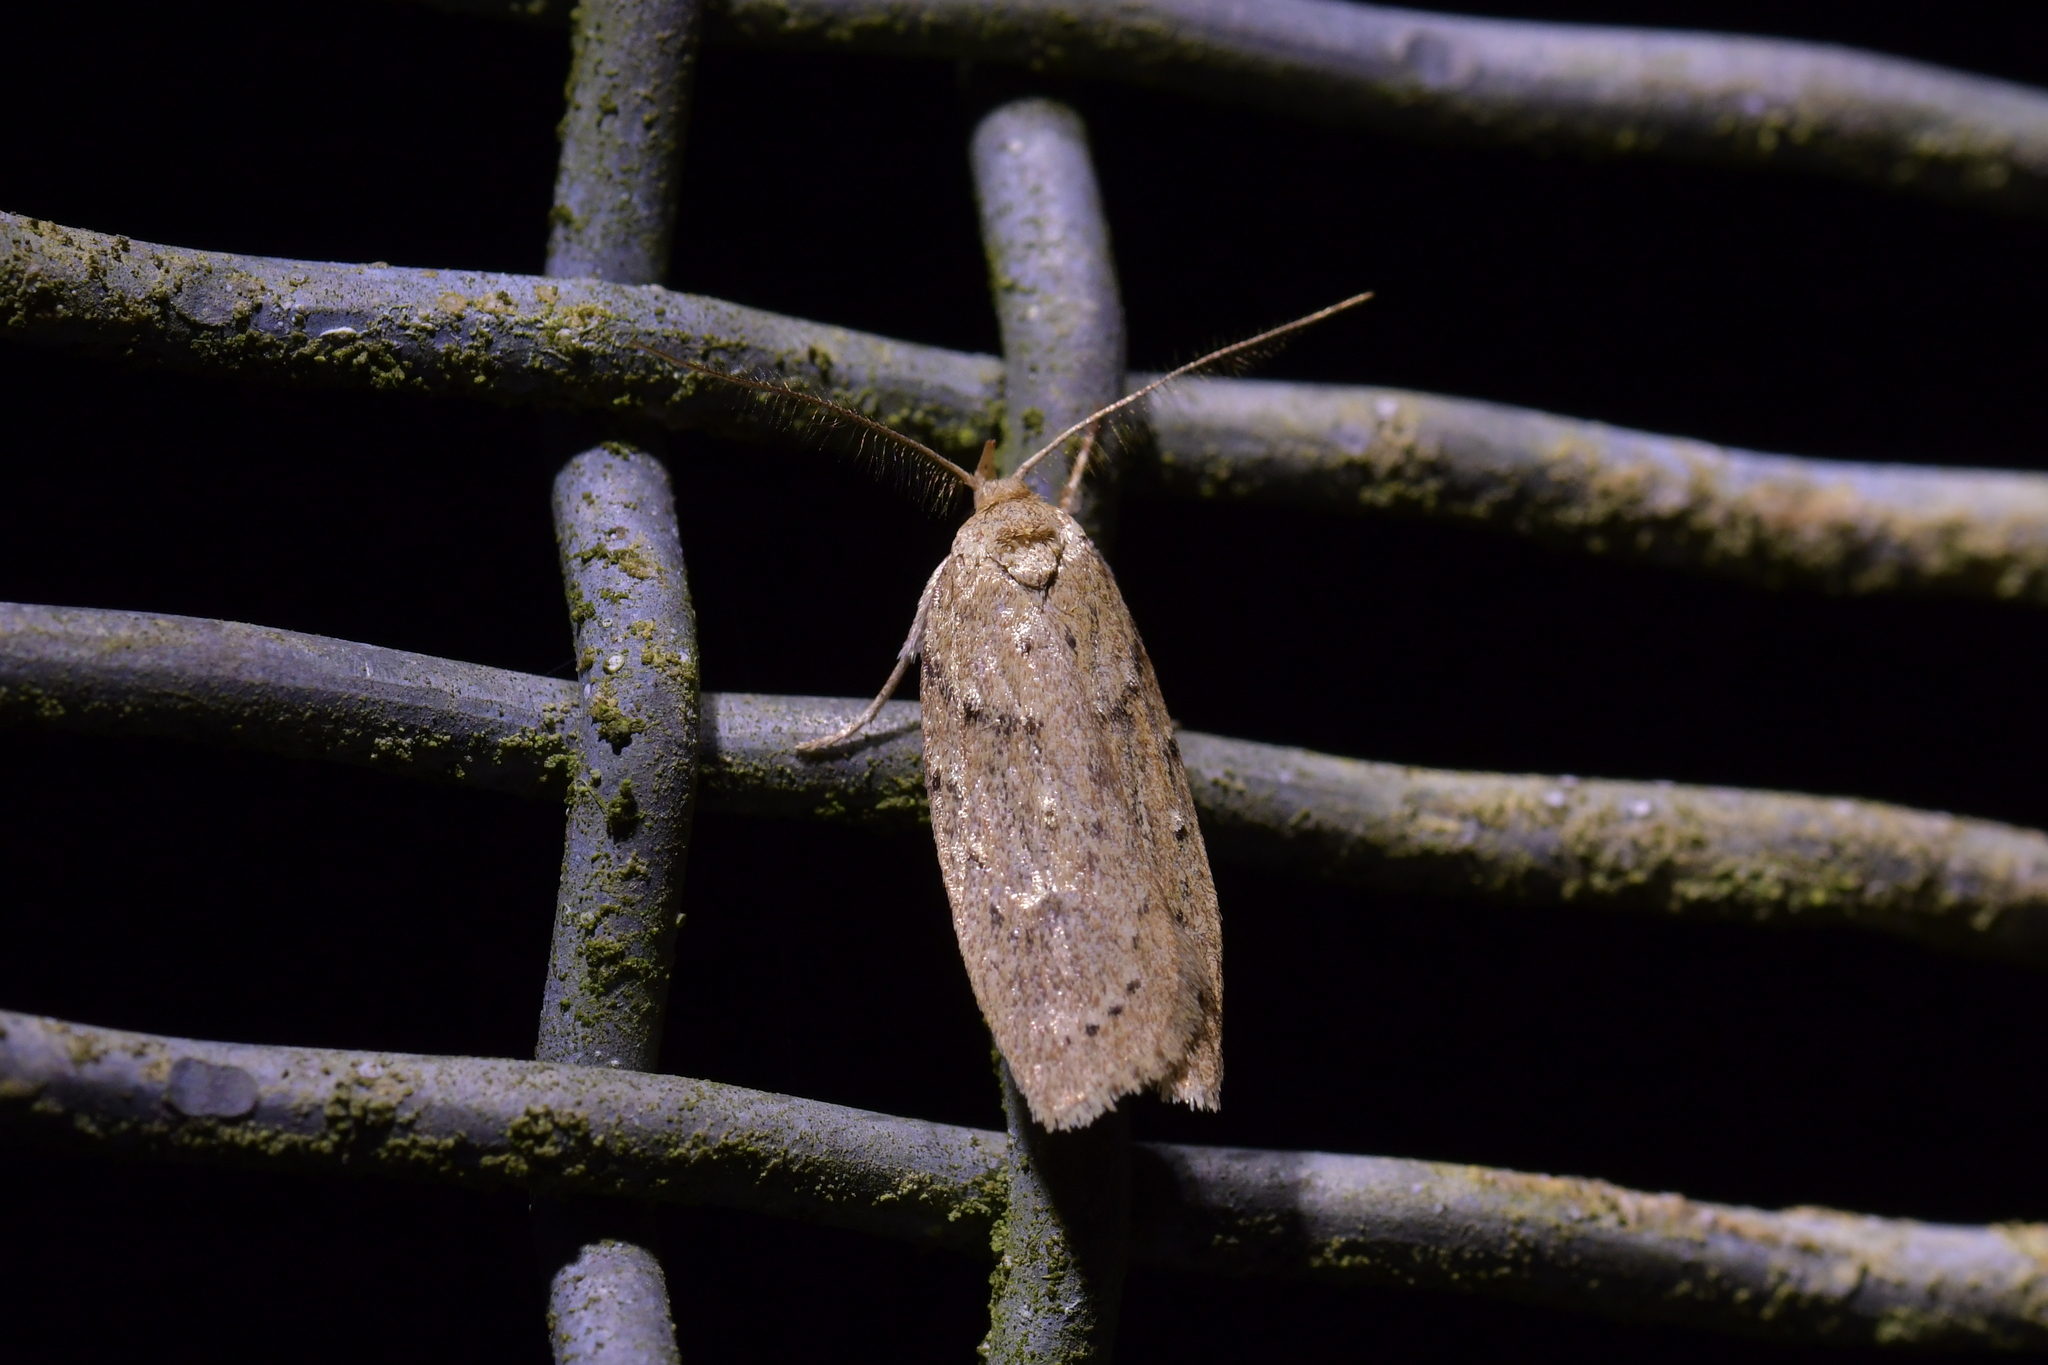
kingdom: Animalia
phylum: Arthropoda
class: Insecta
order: Lepidoptera
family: Depressariidae
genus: Agriophara
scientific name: Agriophara
